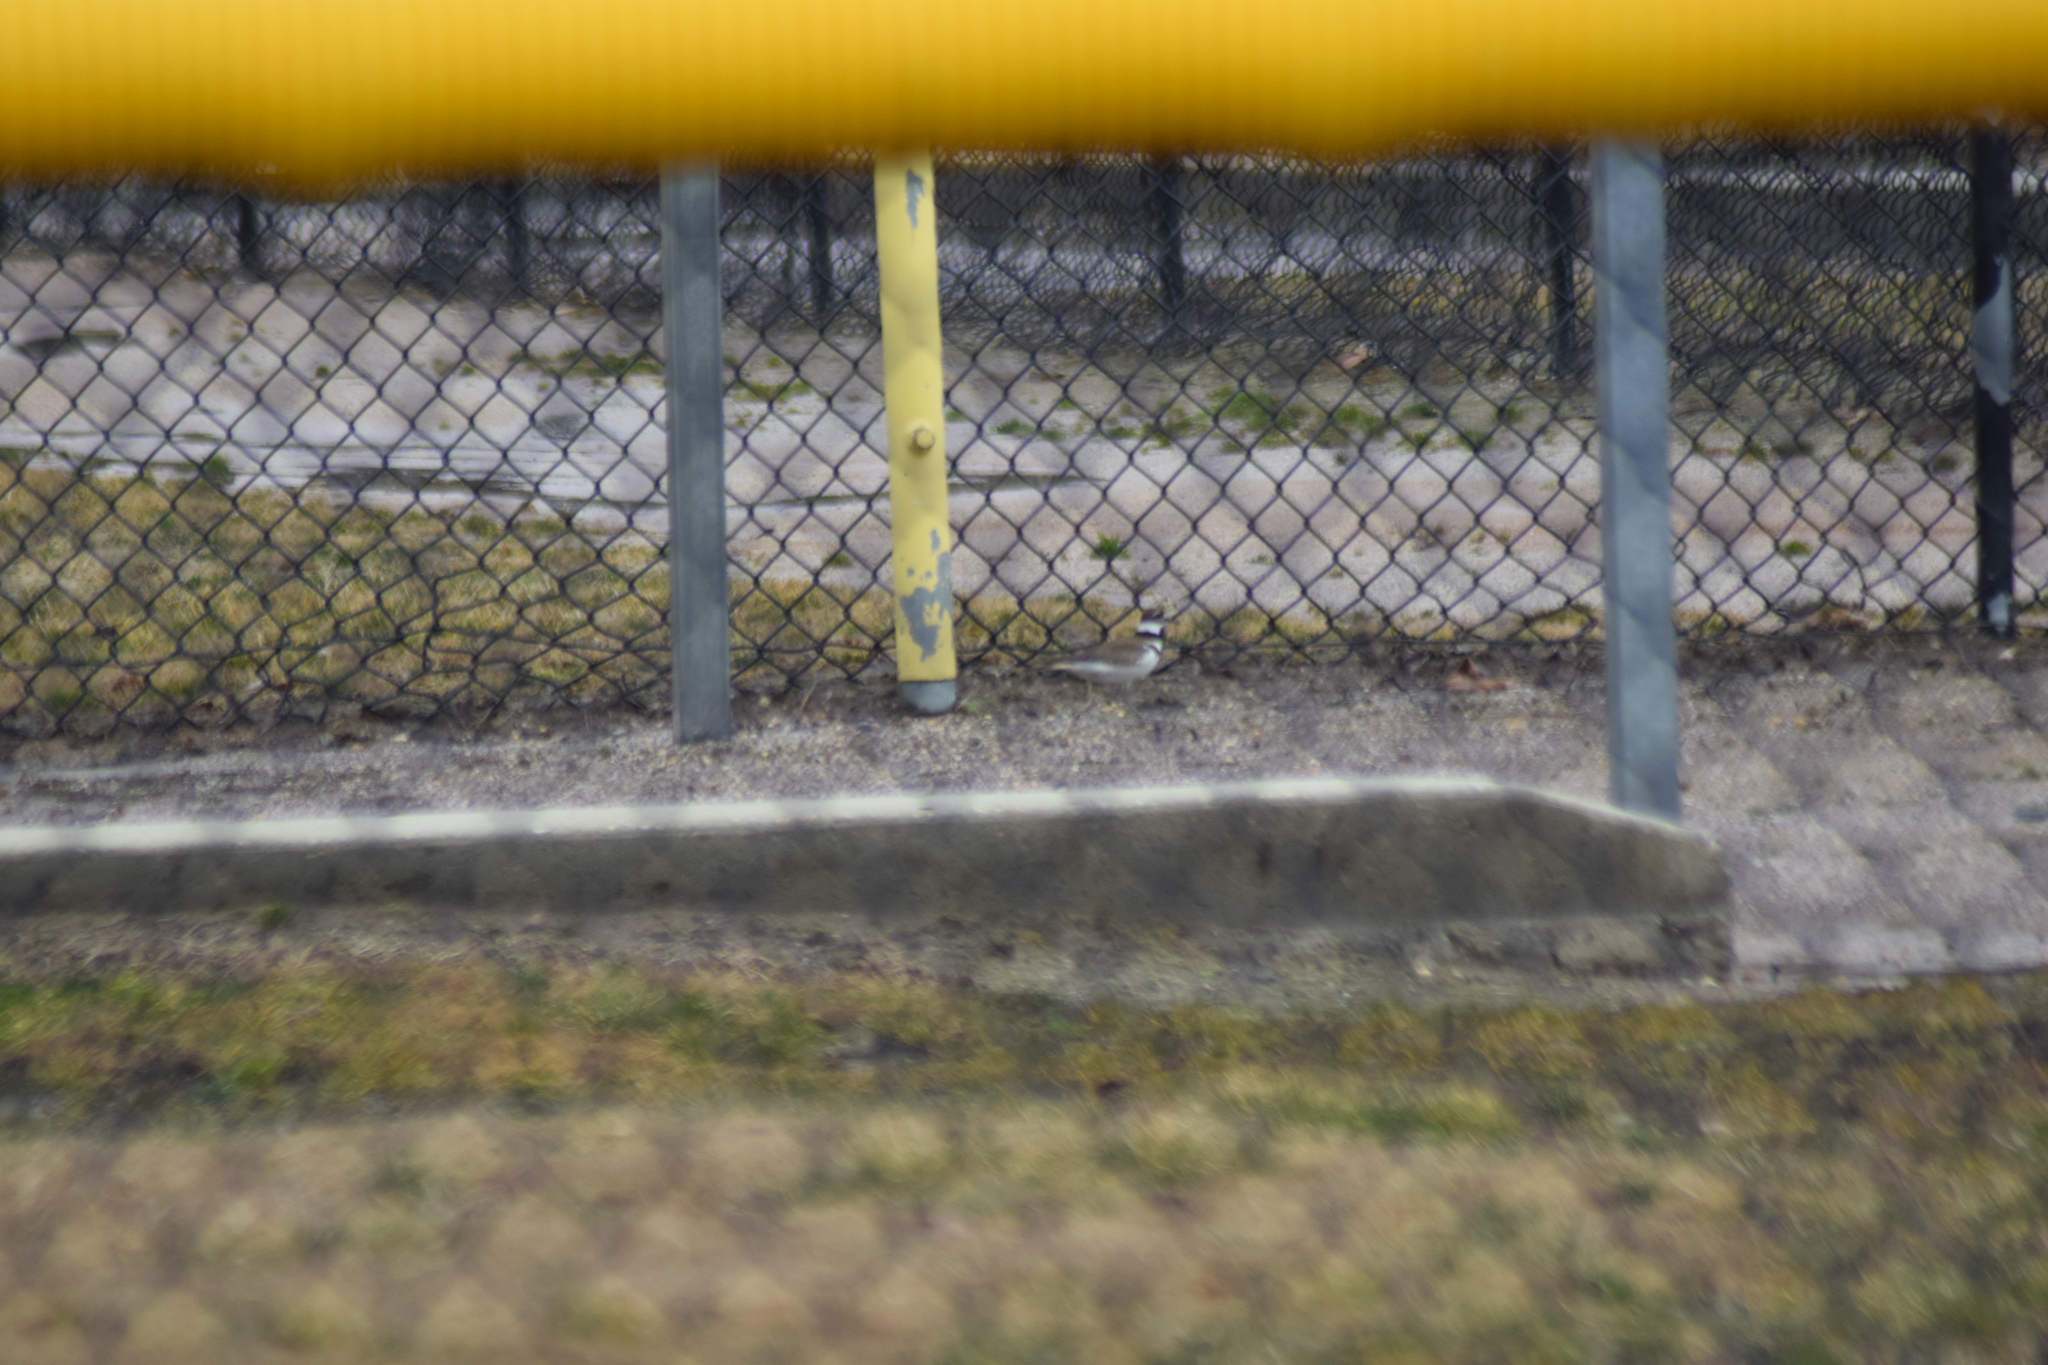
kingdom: Animalia
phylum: Chordata
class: Aves
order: Charadriiformes
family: Charadriidae
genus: Charadrius
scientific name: Charadrius vociferus
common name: Killdeer
